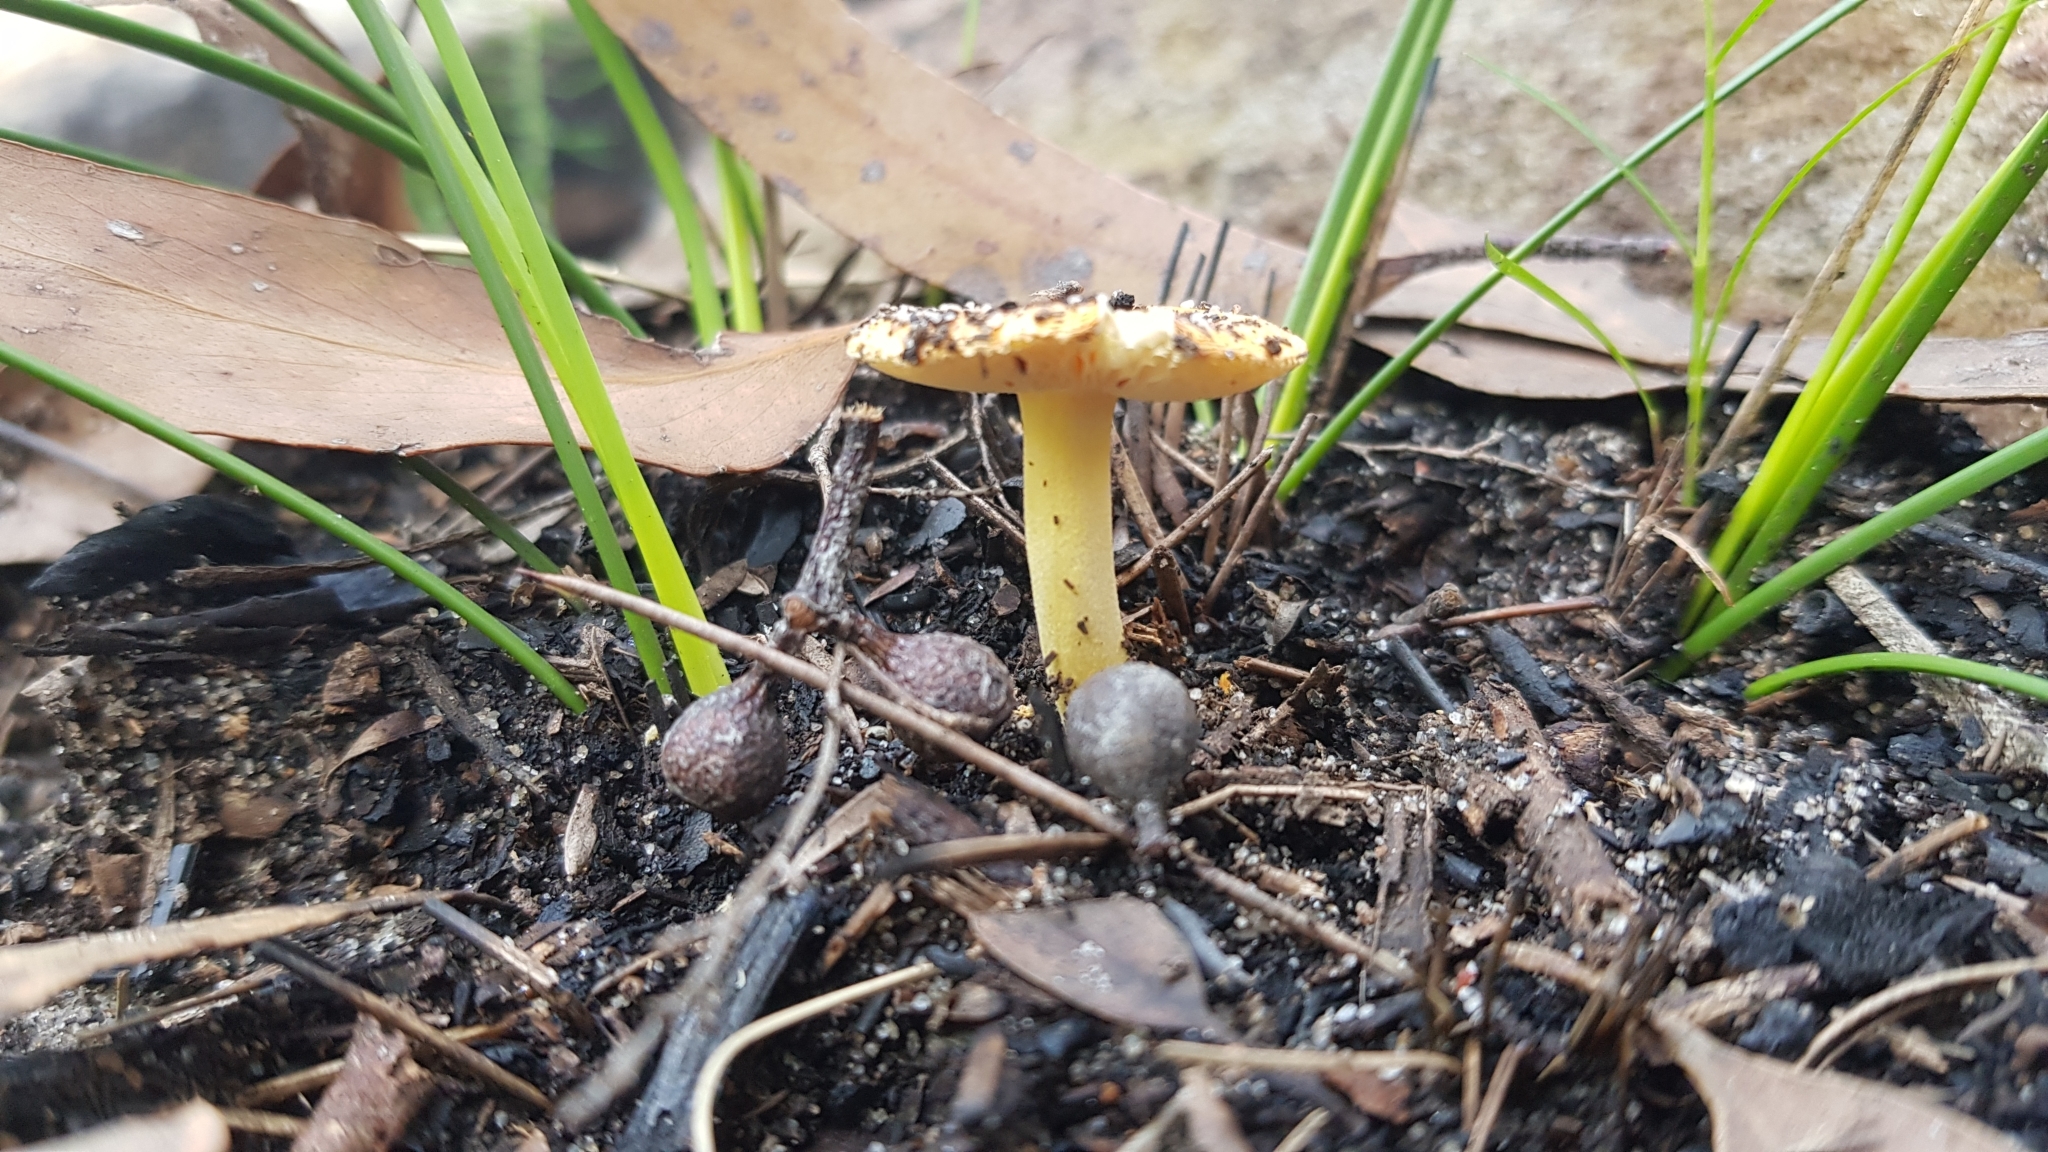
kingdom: Fungi
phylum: Basidiomycota
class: Agaricomycetes
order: Agaricales
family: Amanitaceae
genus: Amanita
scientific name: Amanita xanthocephala
